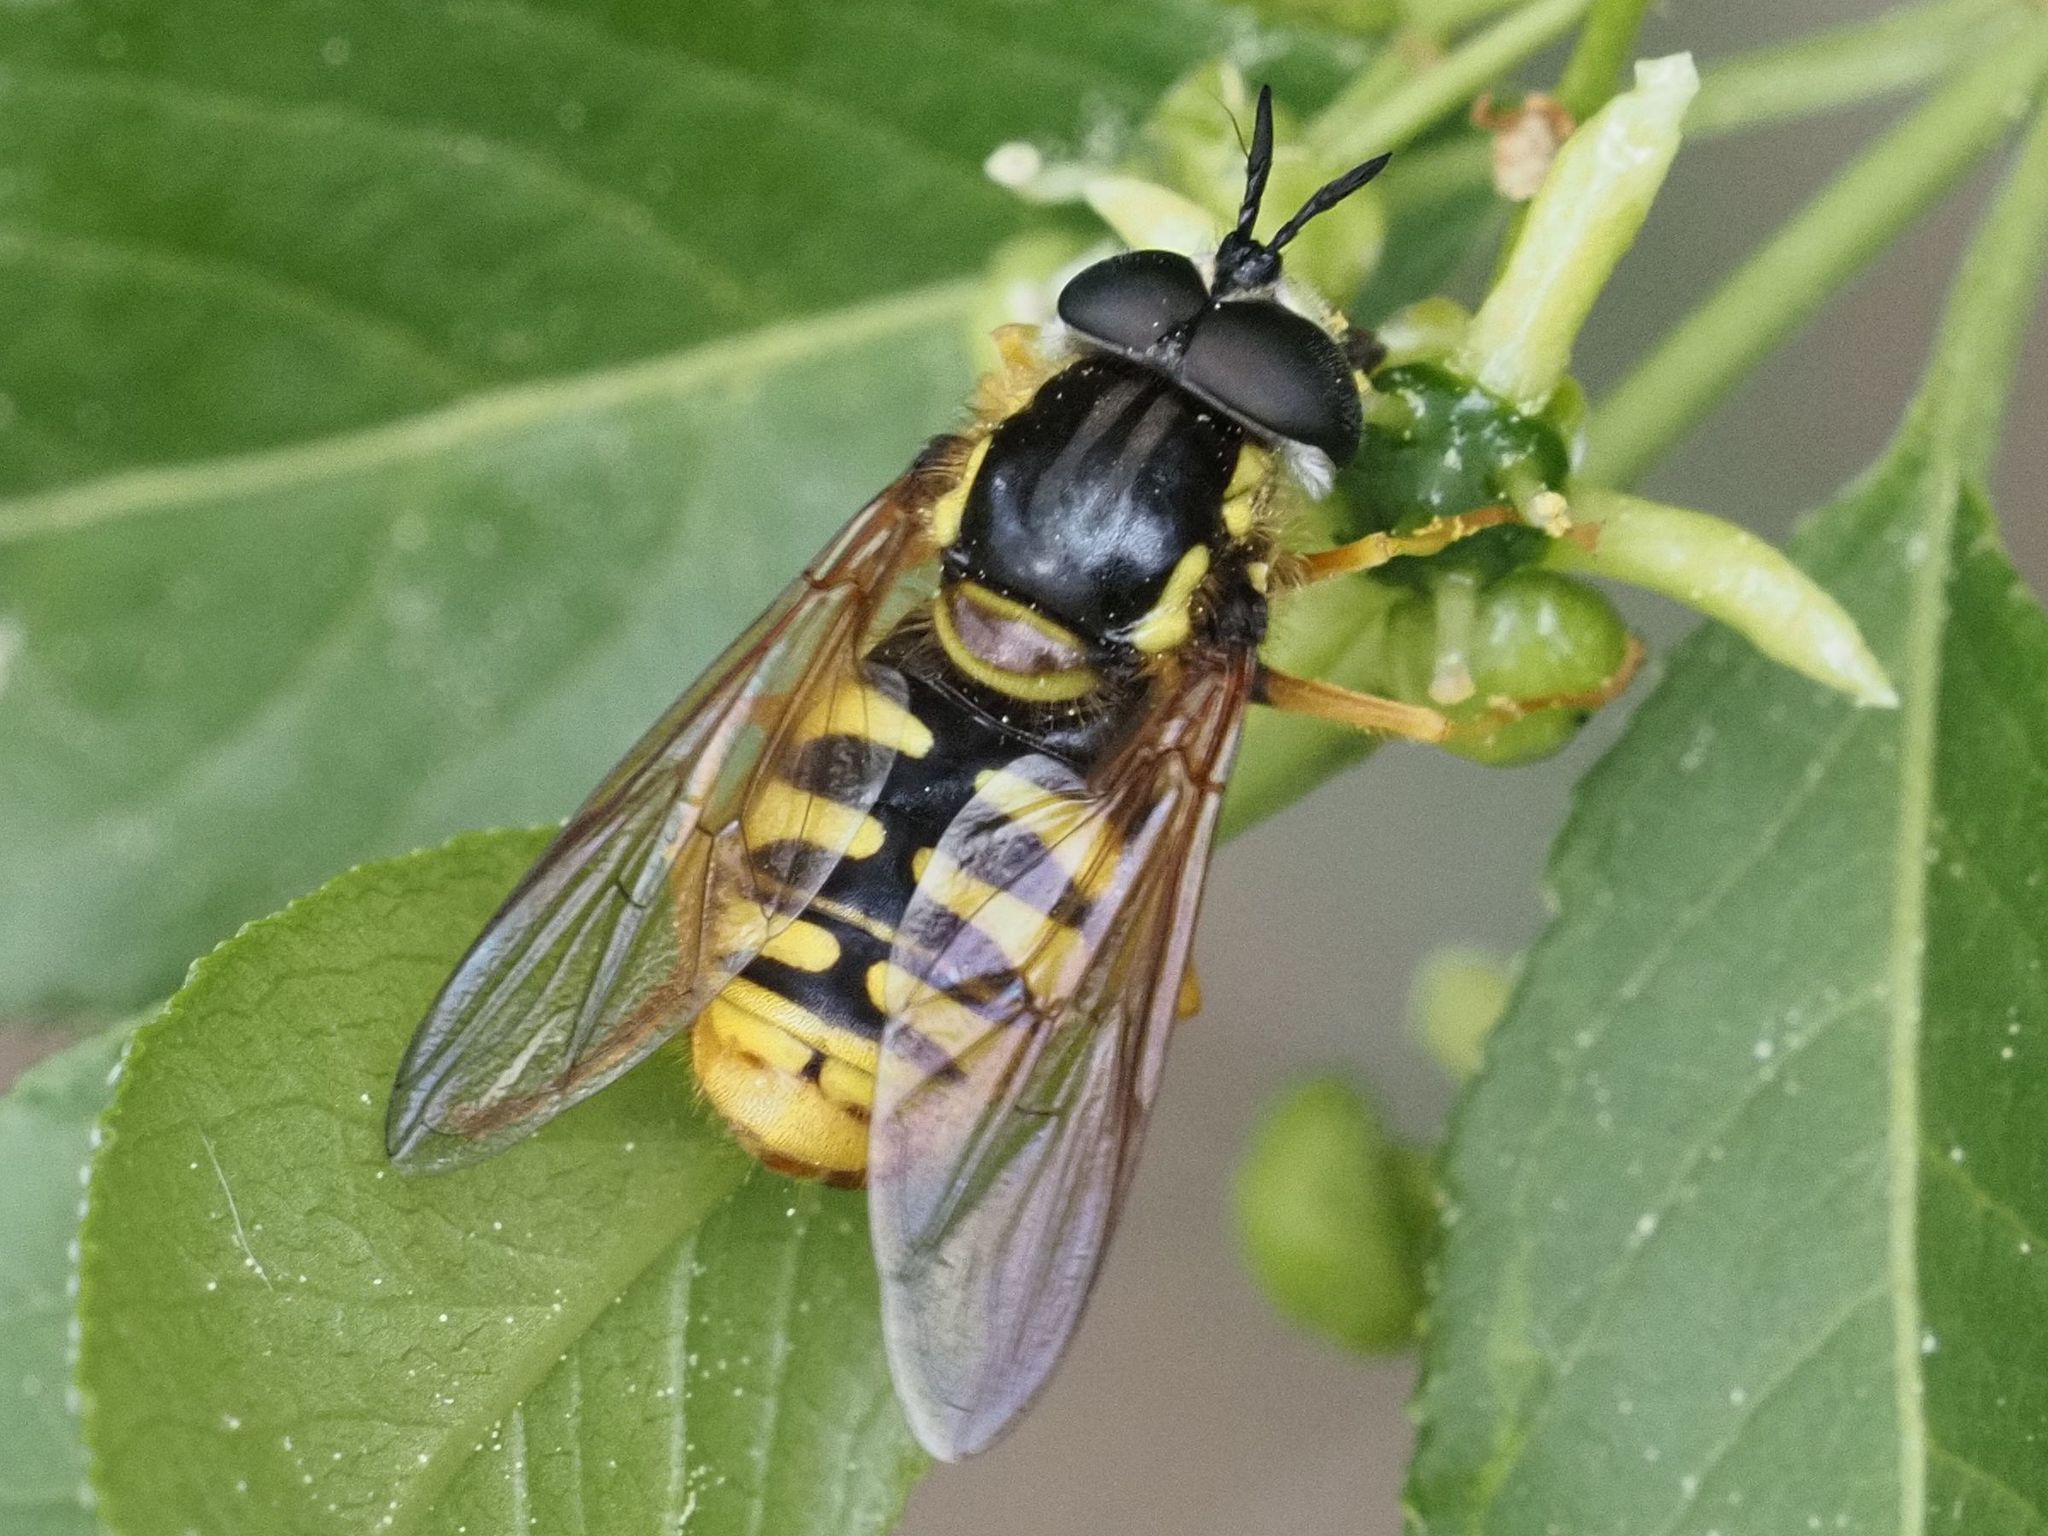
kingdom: Animalia
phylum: Arthropoda
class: Insecta
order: Diptera
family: Syrphidae
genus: Chrysotoxum
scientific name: Chrysotoxum cautum
